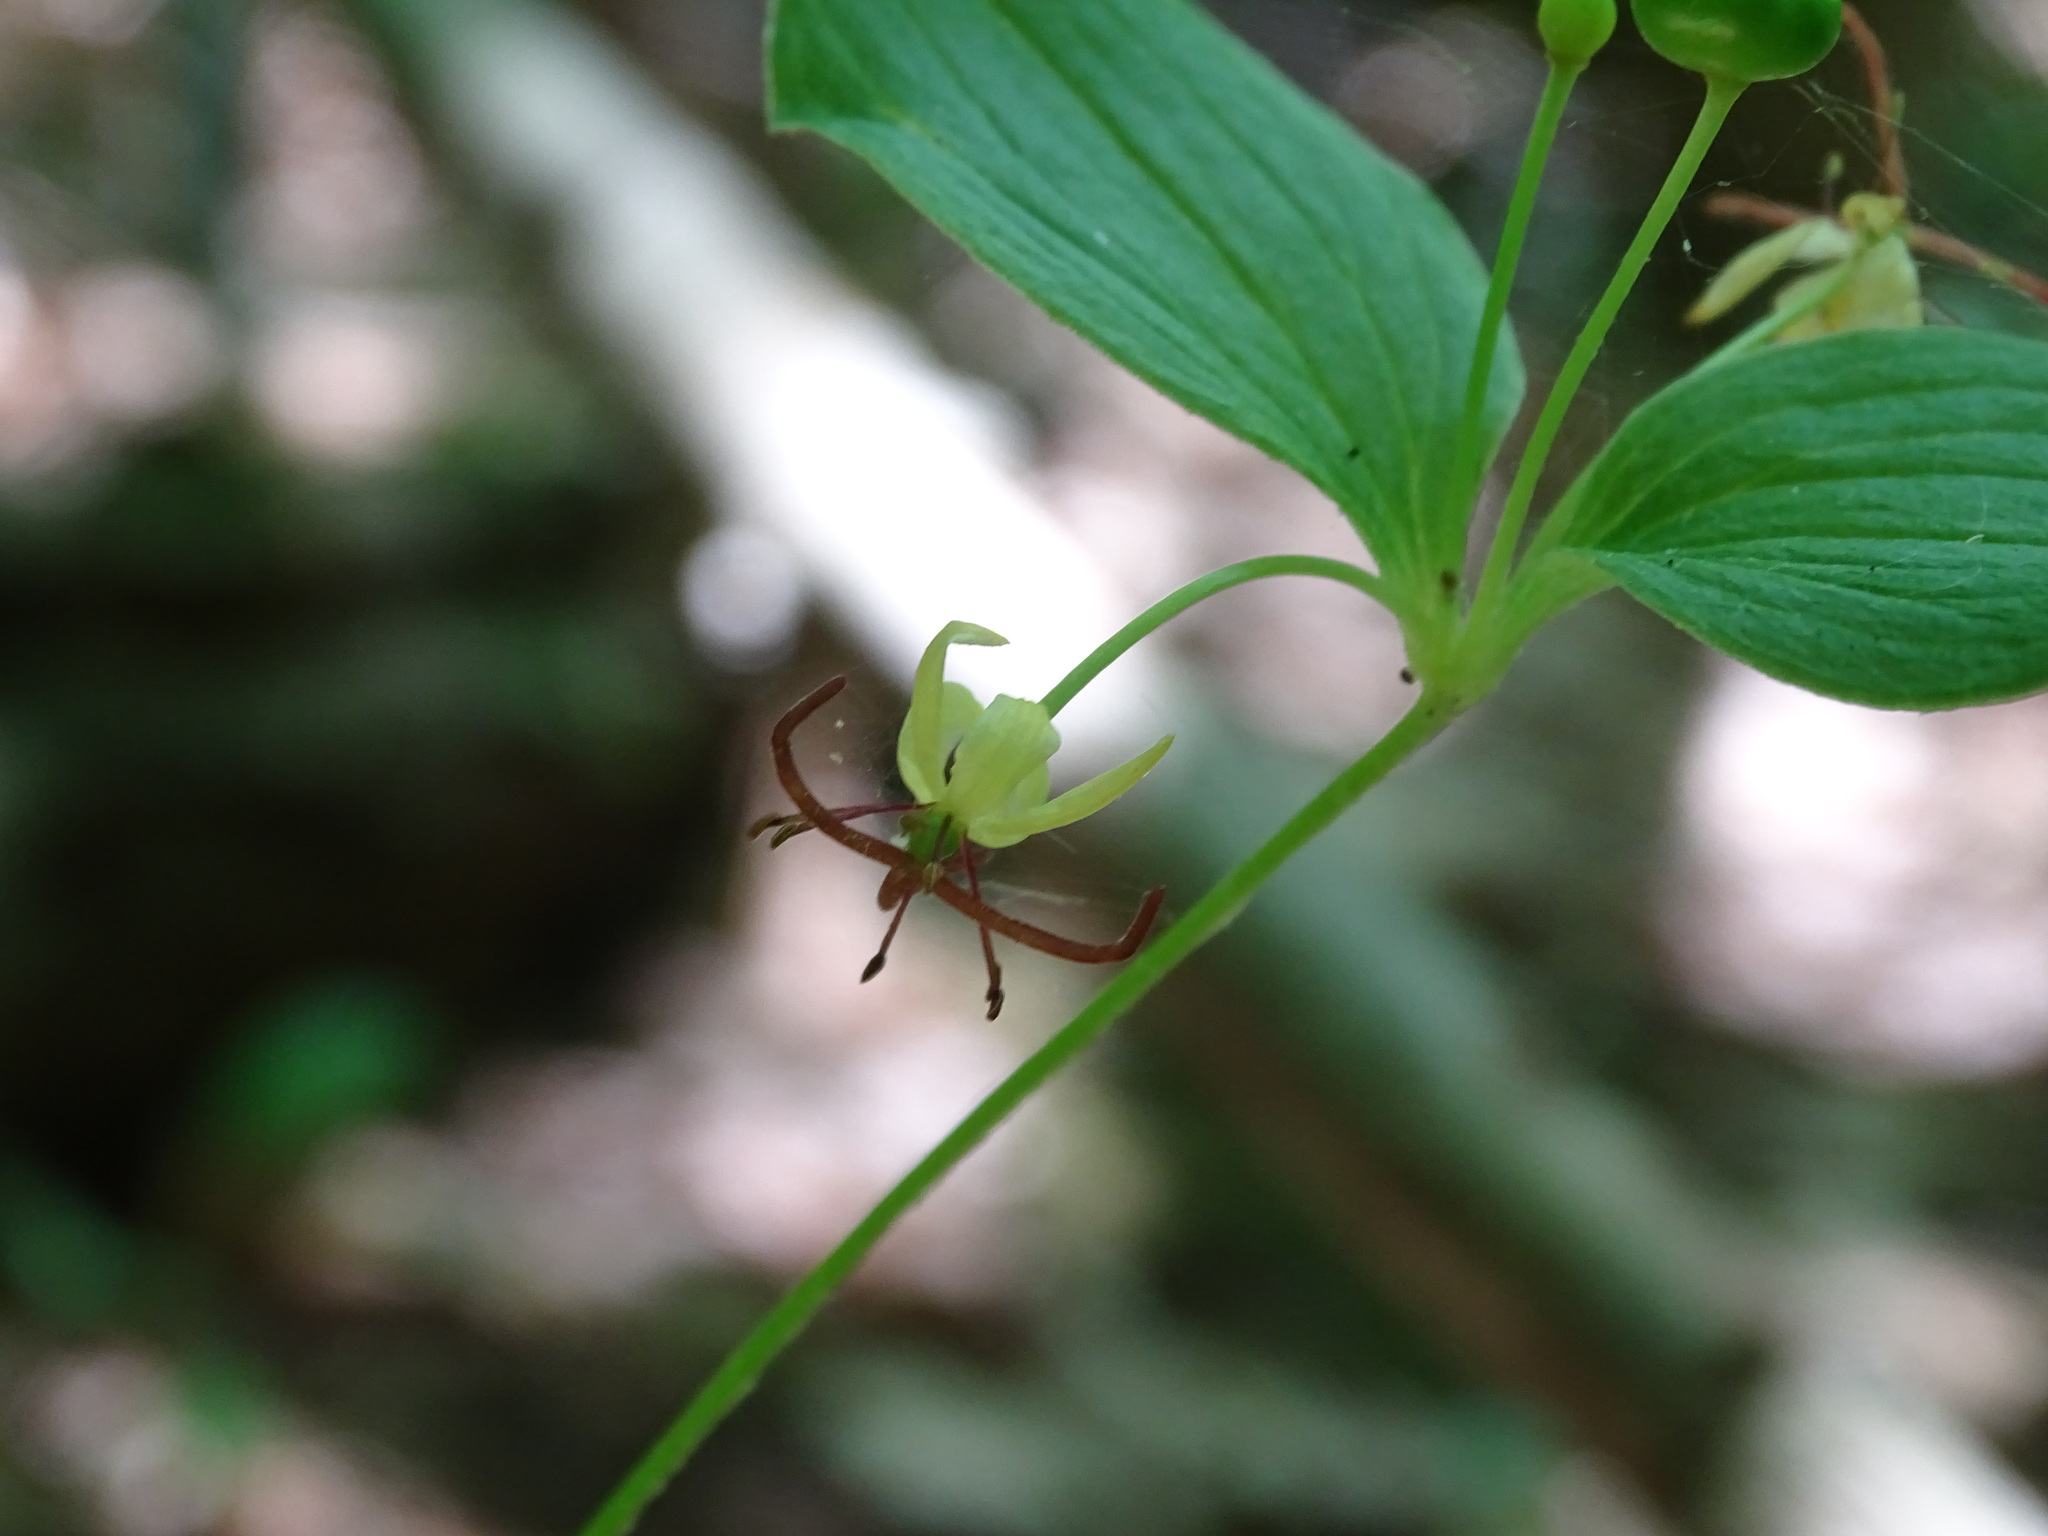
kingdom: Plantae
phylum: Tracheophyta
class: Liliopsida
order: Liliales
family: Liliaceae
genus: Medeola
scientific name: Medeola virginiana
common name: Indian cucumber-root
